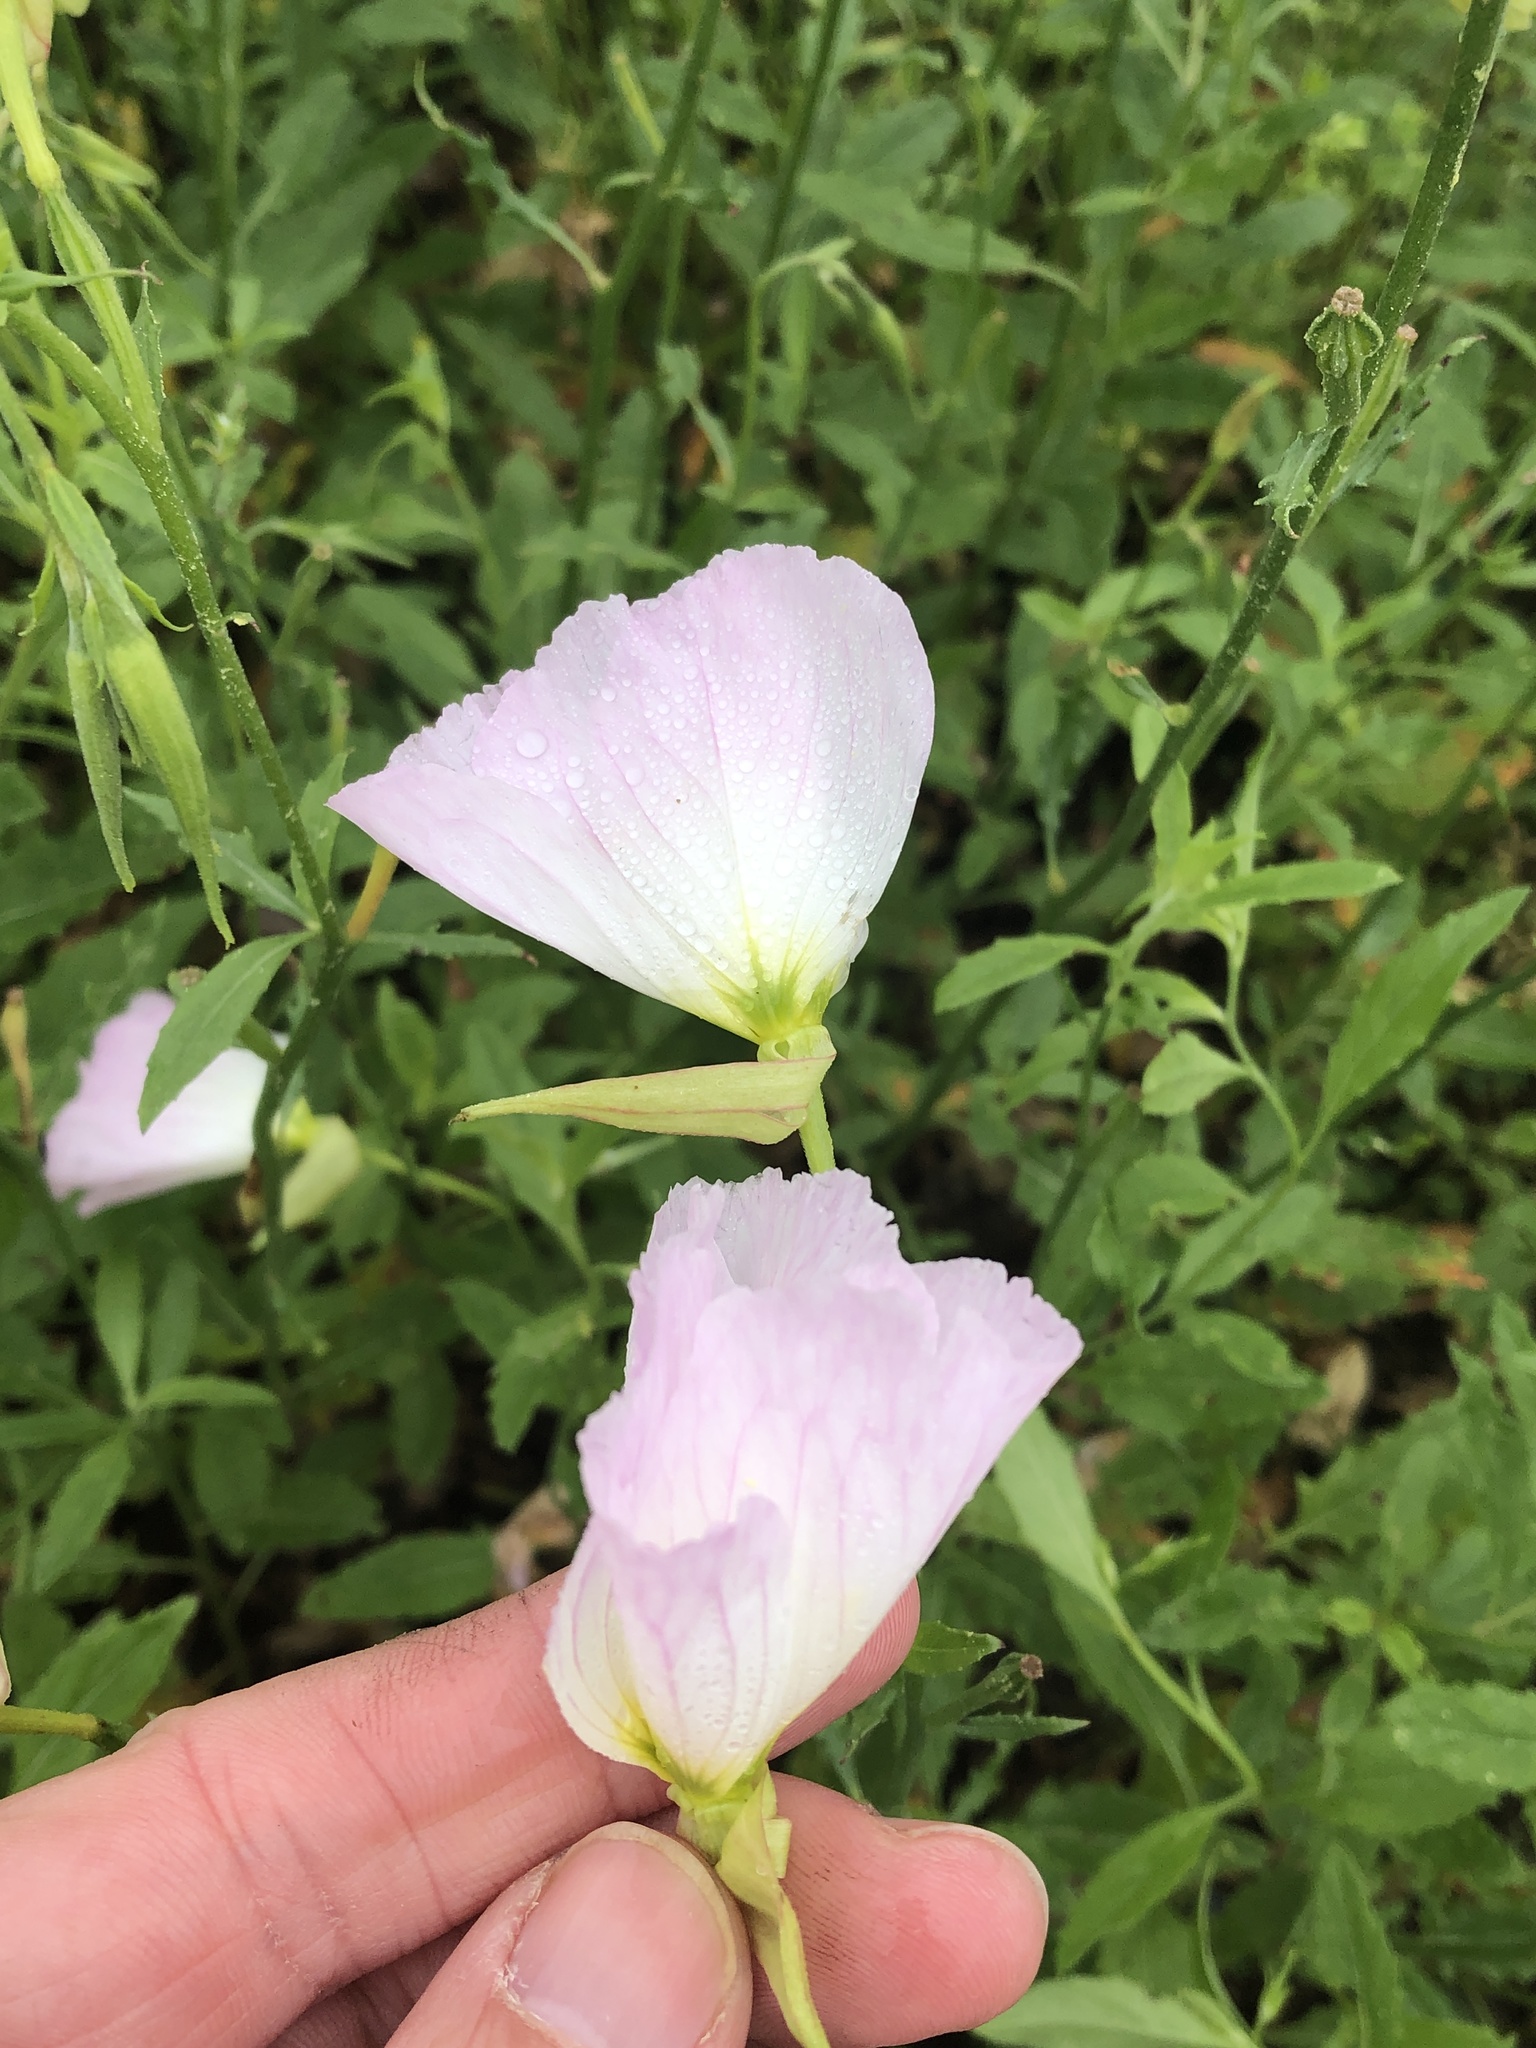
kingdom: Plantae
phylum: Tracheophyta
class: Magnoliopsida
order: Myrtales
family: Onagraceae
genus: Oenothera
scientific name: Oenothera speciosa
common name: White evening-primrose
